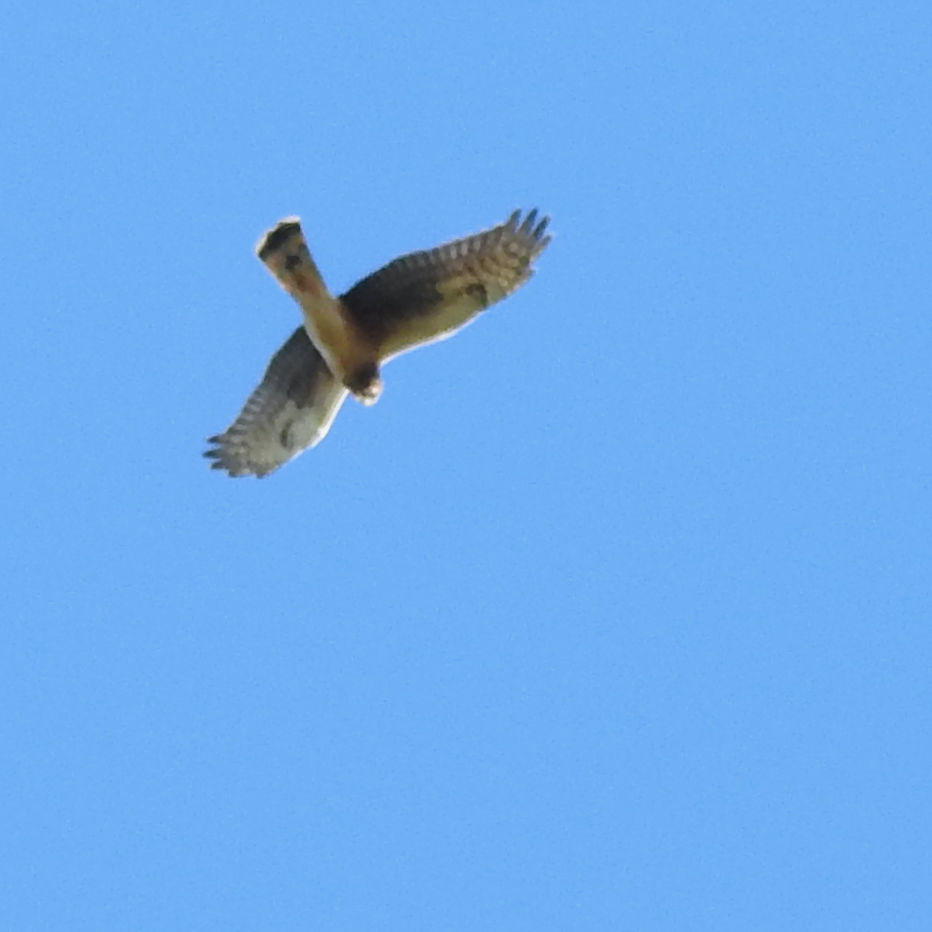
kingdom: Animalia
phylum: Chordata
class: Aves
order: Accipitriformes
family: Accipitridae
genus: Circus
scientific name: Circus cyaneus
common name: Hen harrier
